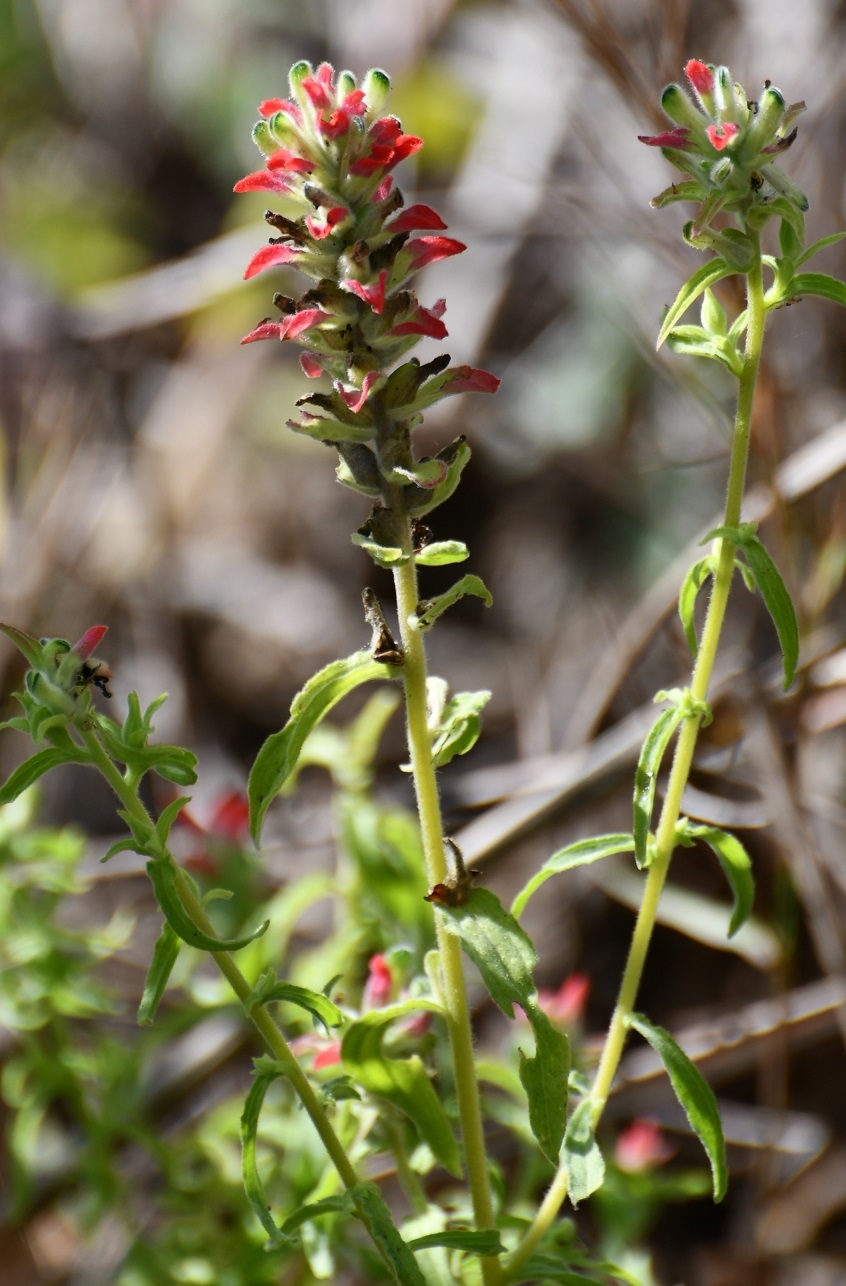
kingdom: Plantae
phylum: Tracheophyta
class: Magnoliopsida
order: Lamiales
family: Orobanchaceae
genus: Castilleja
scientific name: Castilleja arvensis
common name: Indian paintbrush
